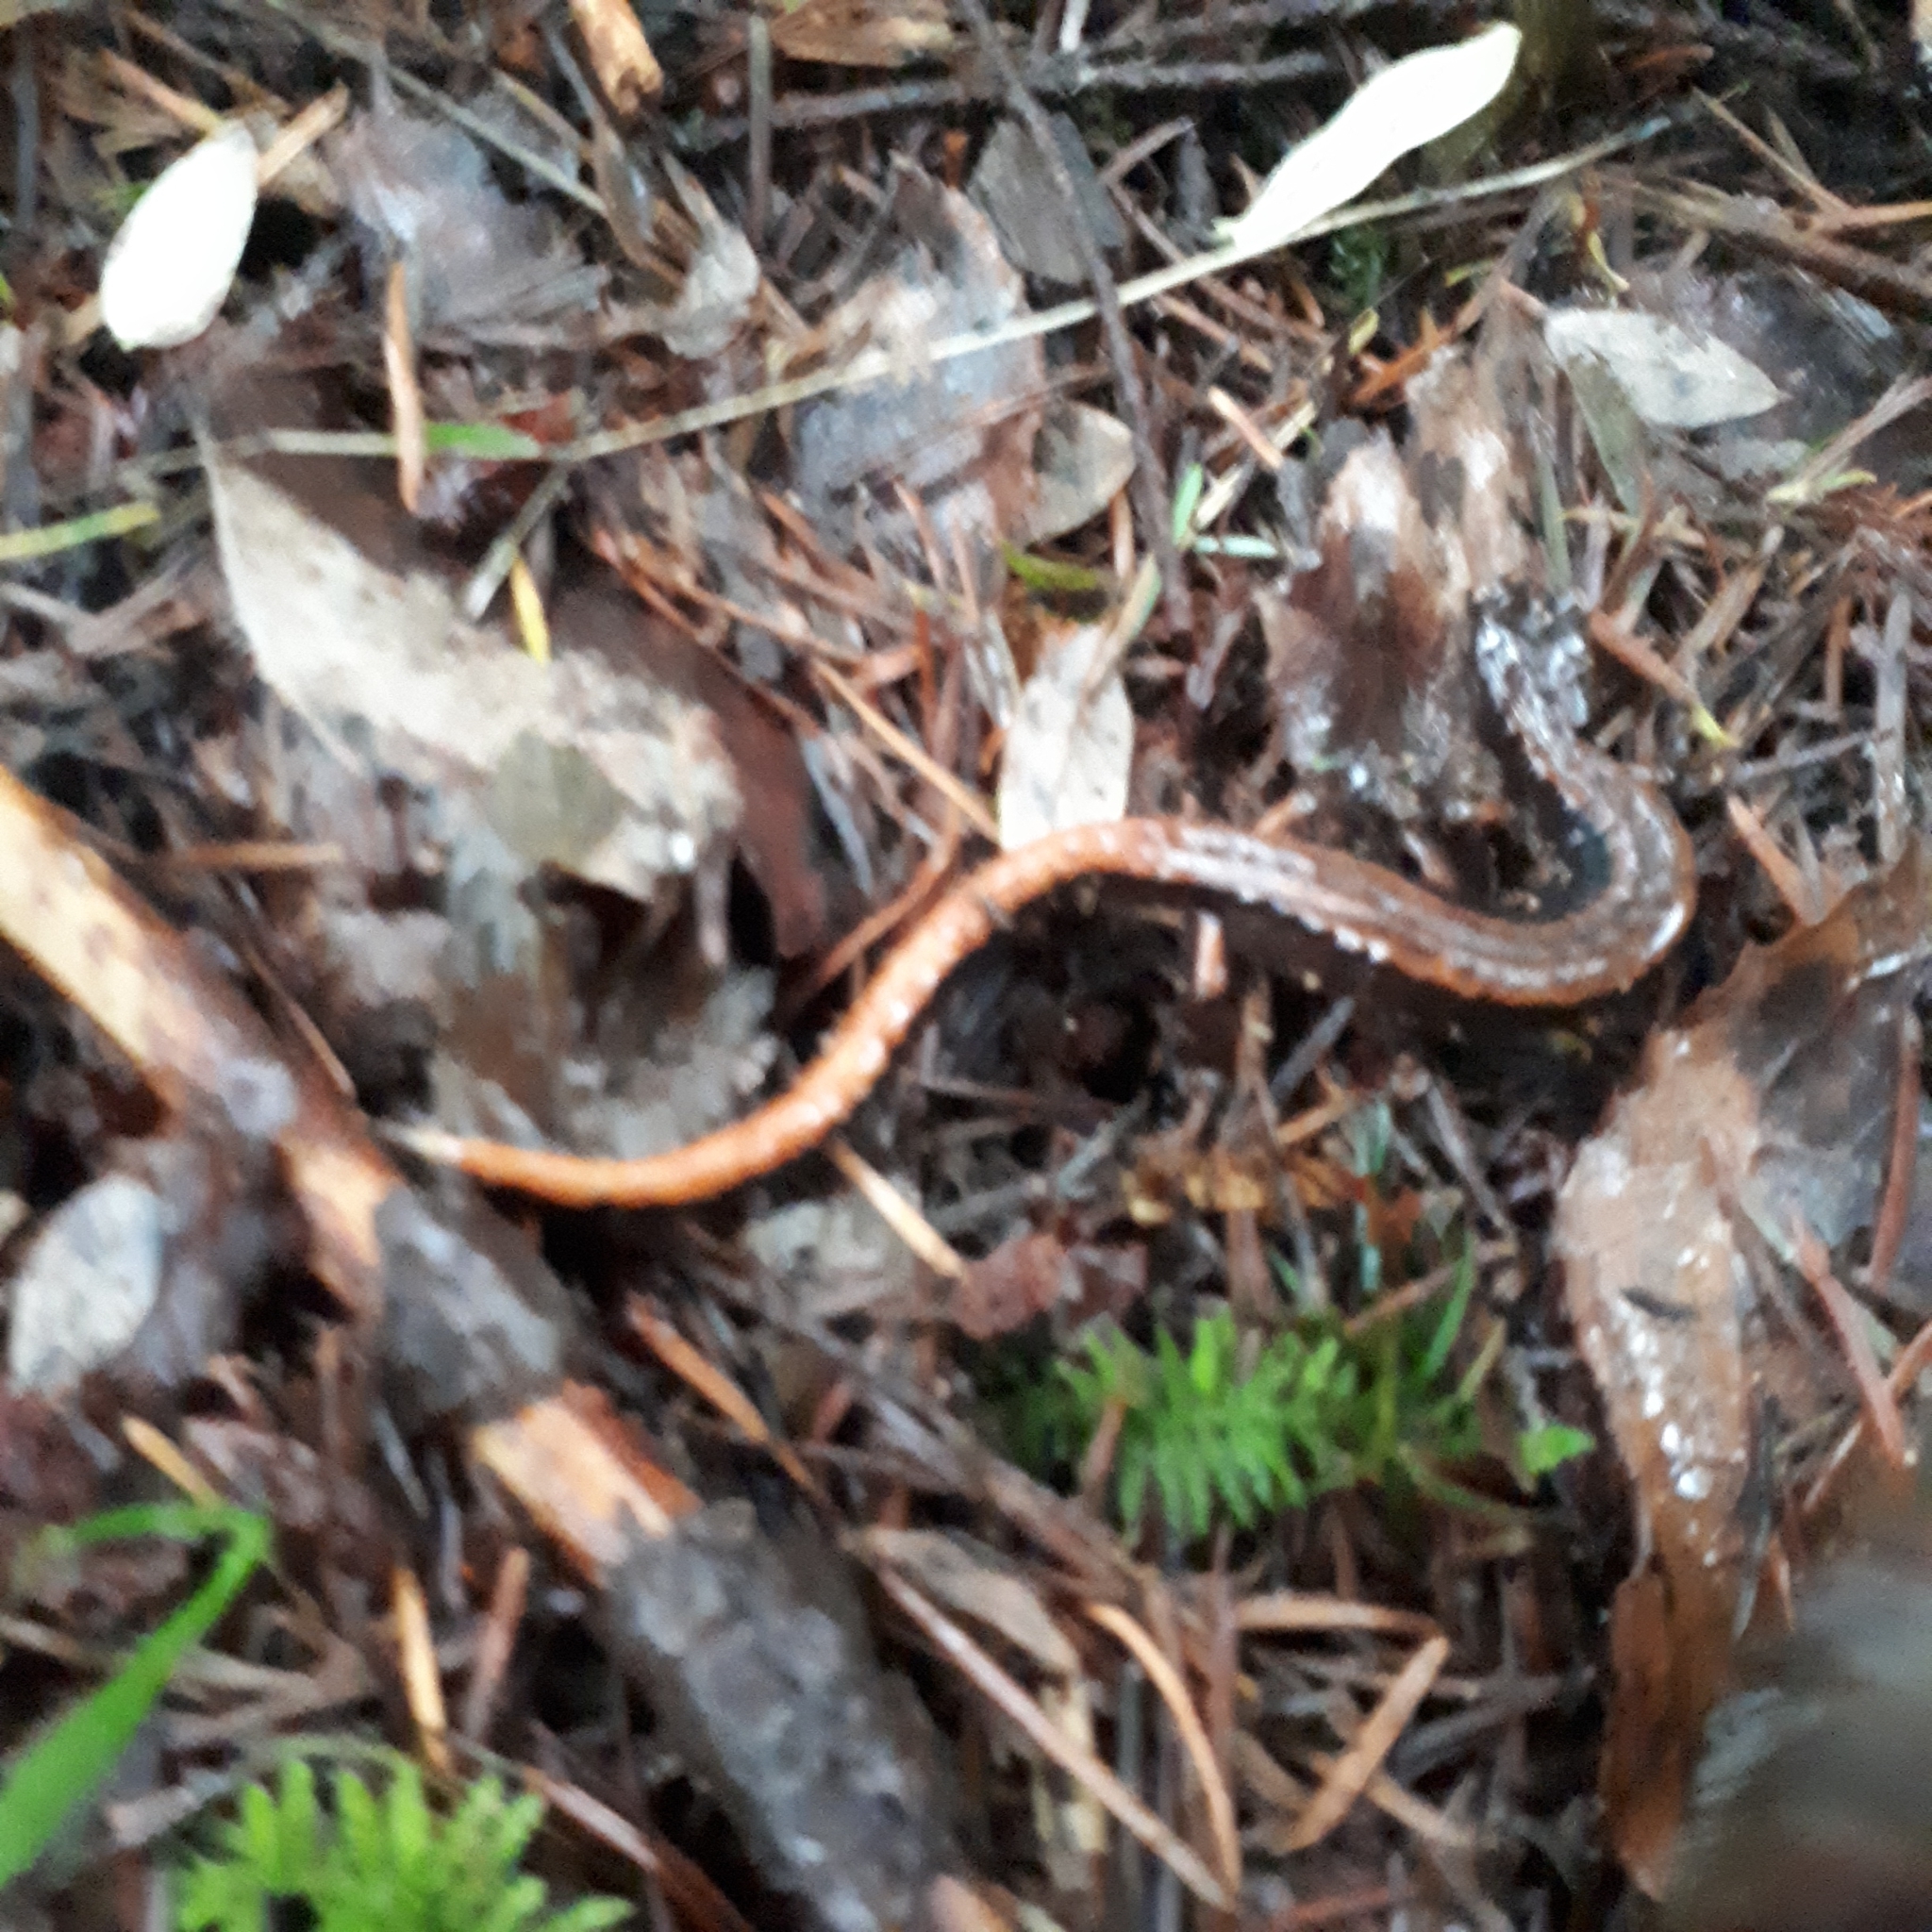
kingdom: Animalia
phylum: Chordata
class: Amphibia
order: Caudata
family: Plethodontidae
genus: Plethodon
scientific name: Plethodon vehiculum
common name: Western red-backed salamander
